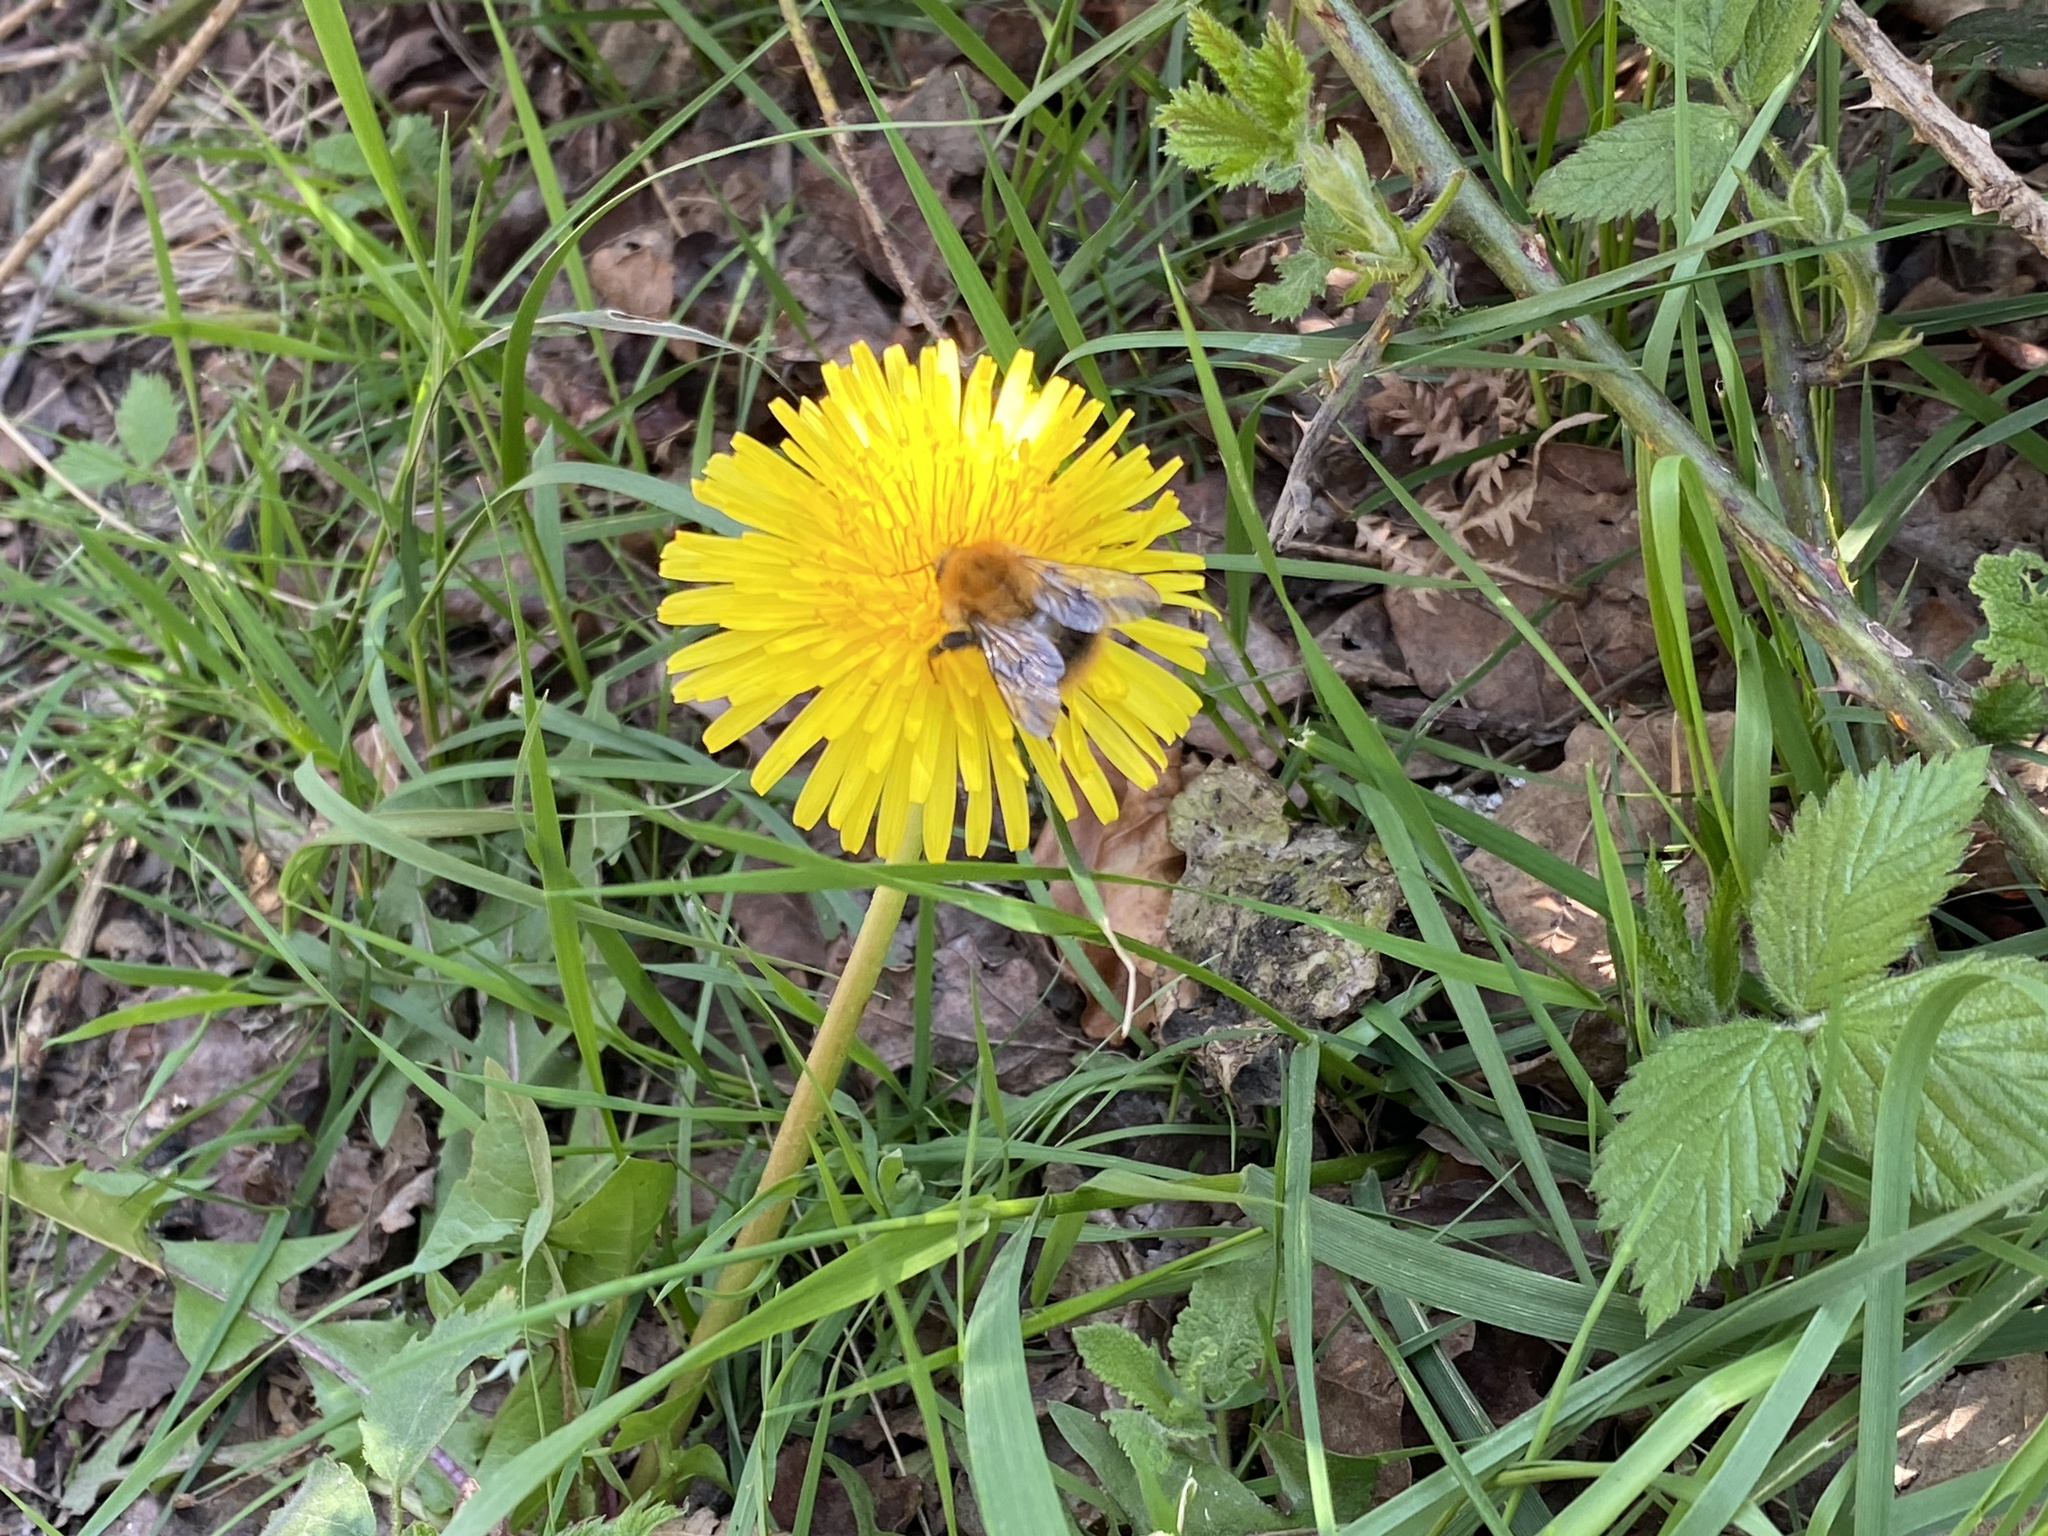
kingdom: Animalia
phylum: Arthropoda
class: Insecta
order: Hymenoptera
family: Apidae
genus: Bombus
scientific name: Bombus pascuorum
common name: Common carder bee
